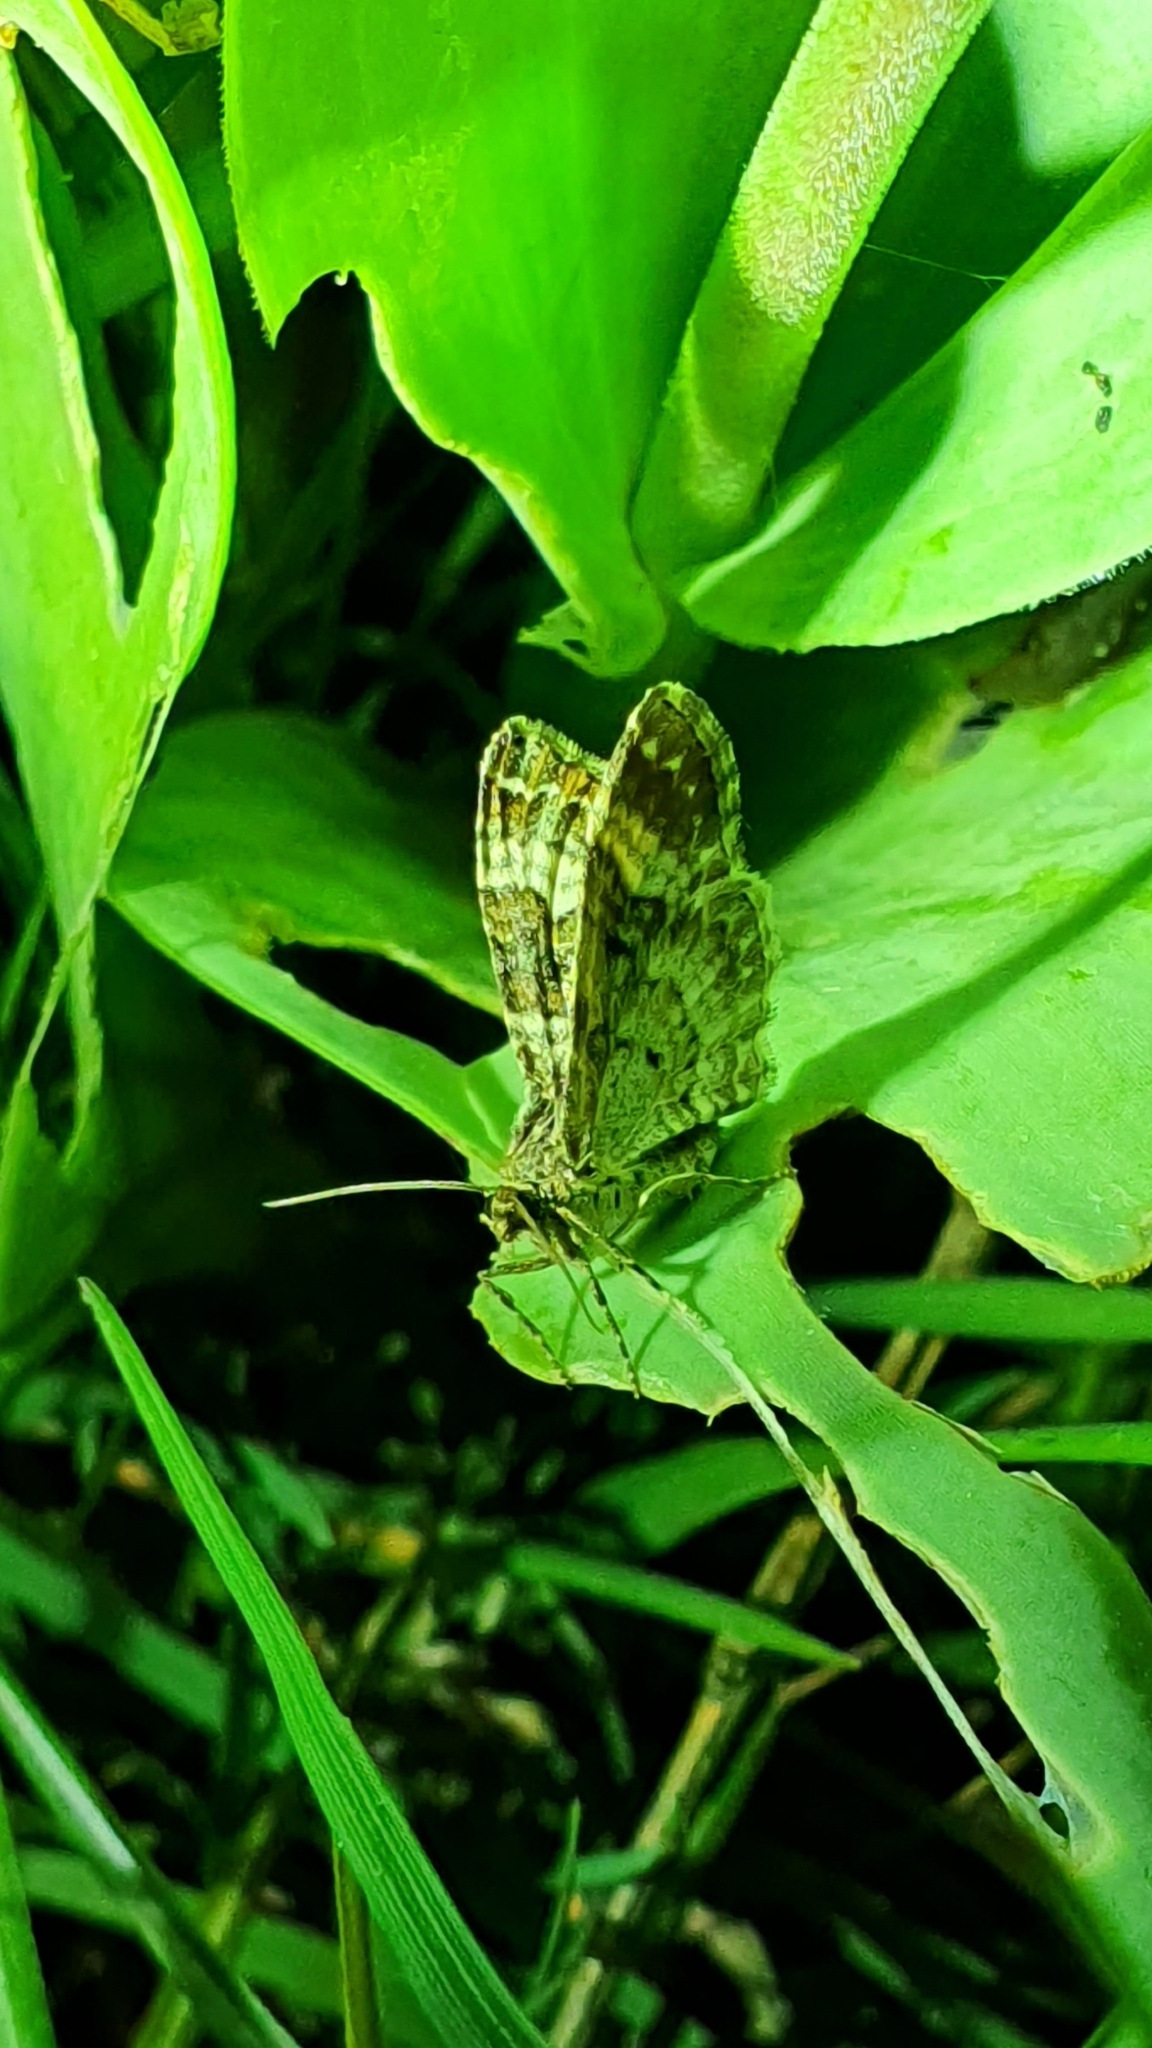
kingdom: Animalia
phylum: Arthropoda
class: Insecta
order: Lepidoptera
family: Geometridae
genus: Epirrhoe
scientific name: Epirrhoe alternata
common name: Common carpet
